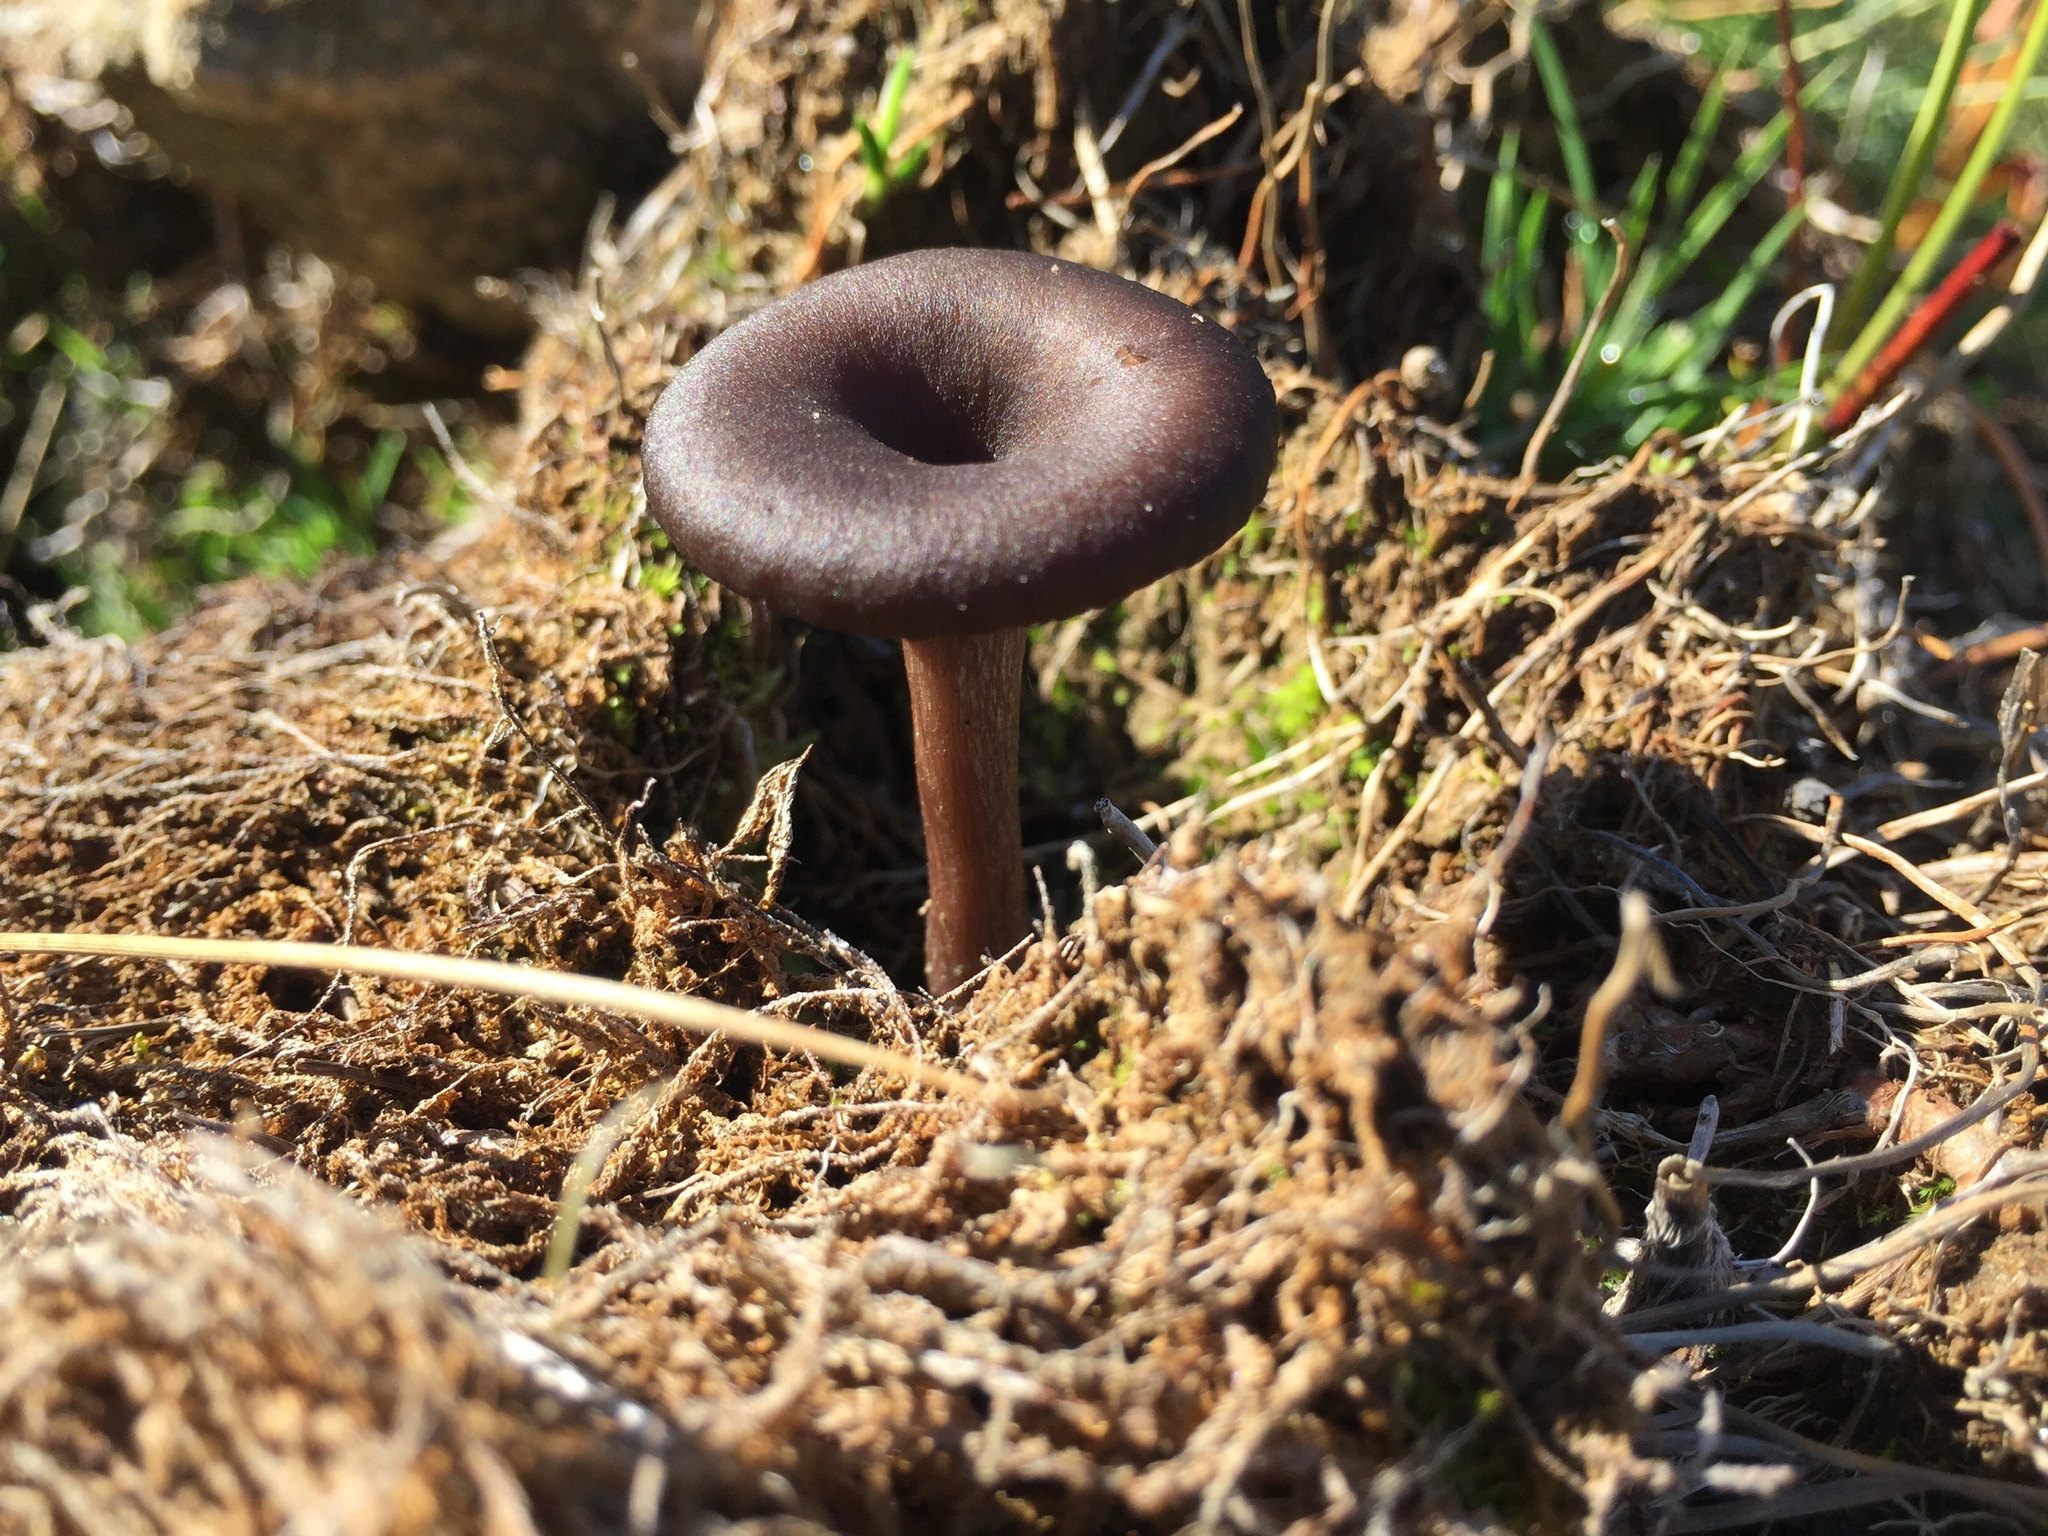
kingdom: Fungi
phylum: Basidiomycota
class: Agaricomycetes
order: Agaricales
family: Pseudoclitocybaceae
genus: Pseudoclitocybe
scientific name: Pseudoclitocybe cyathiformis
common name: Goblet
